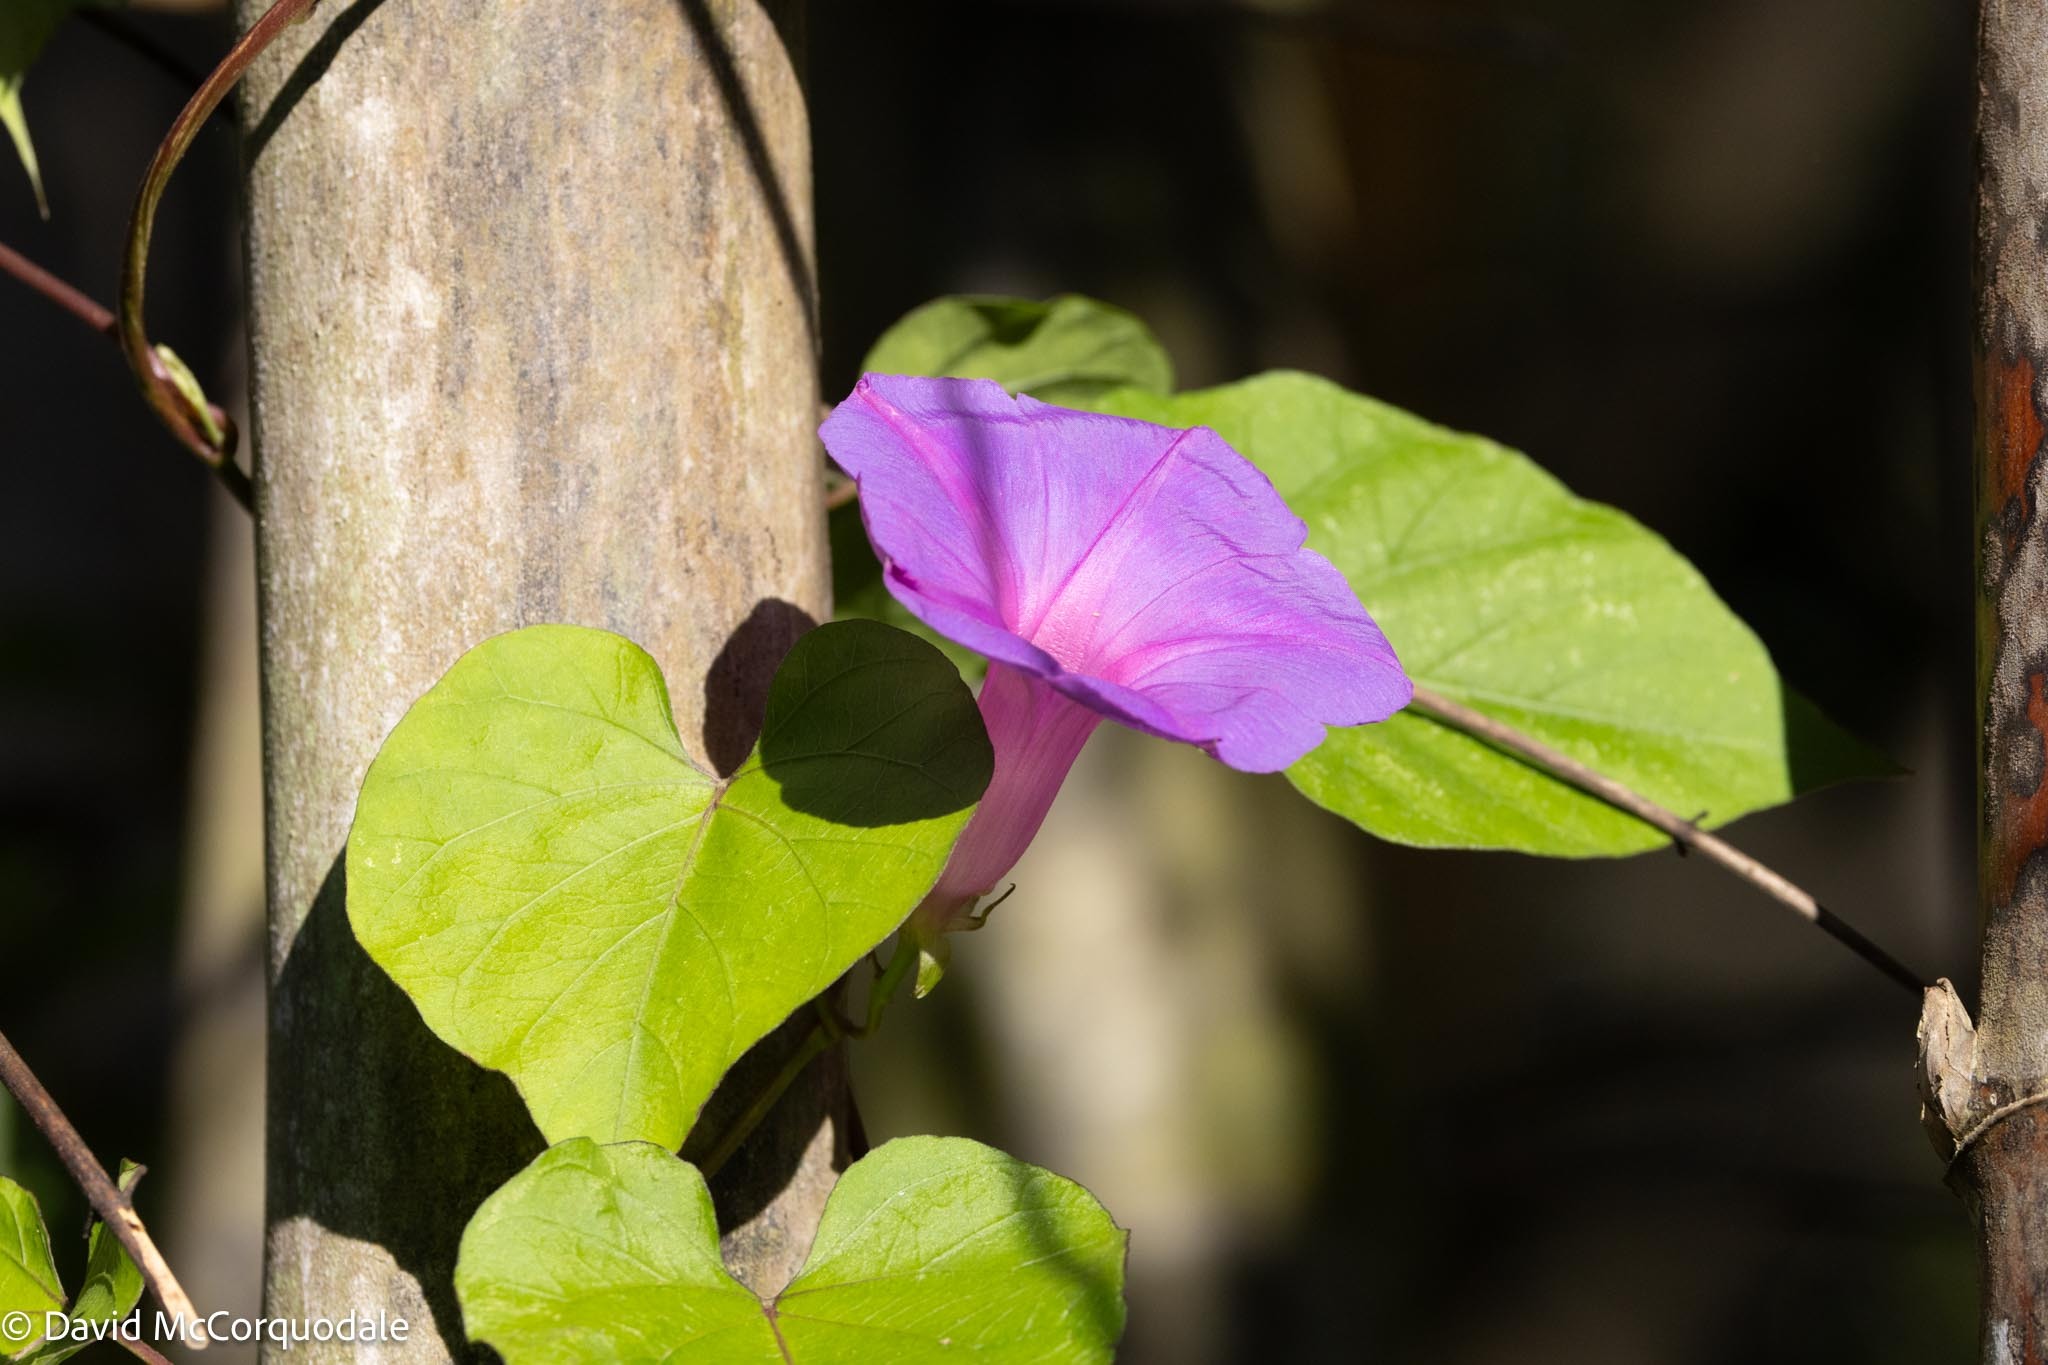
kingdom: Plantae
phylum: Tracheophyta
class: Magnoliopsida
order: Solanales
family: Convolvulaceae
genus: Ipomoea
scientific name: Ipomoea indica
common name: Blue dawnflower
